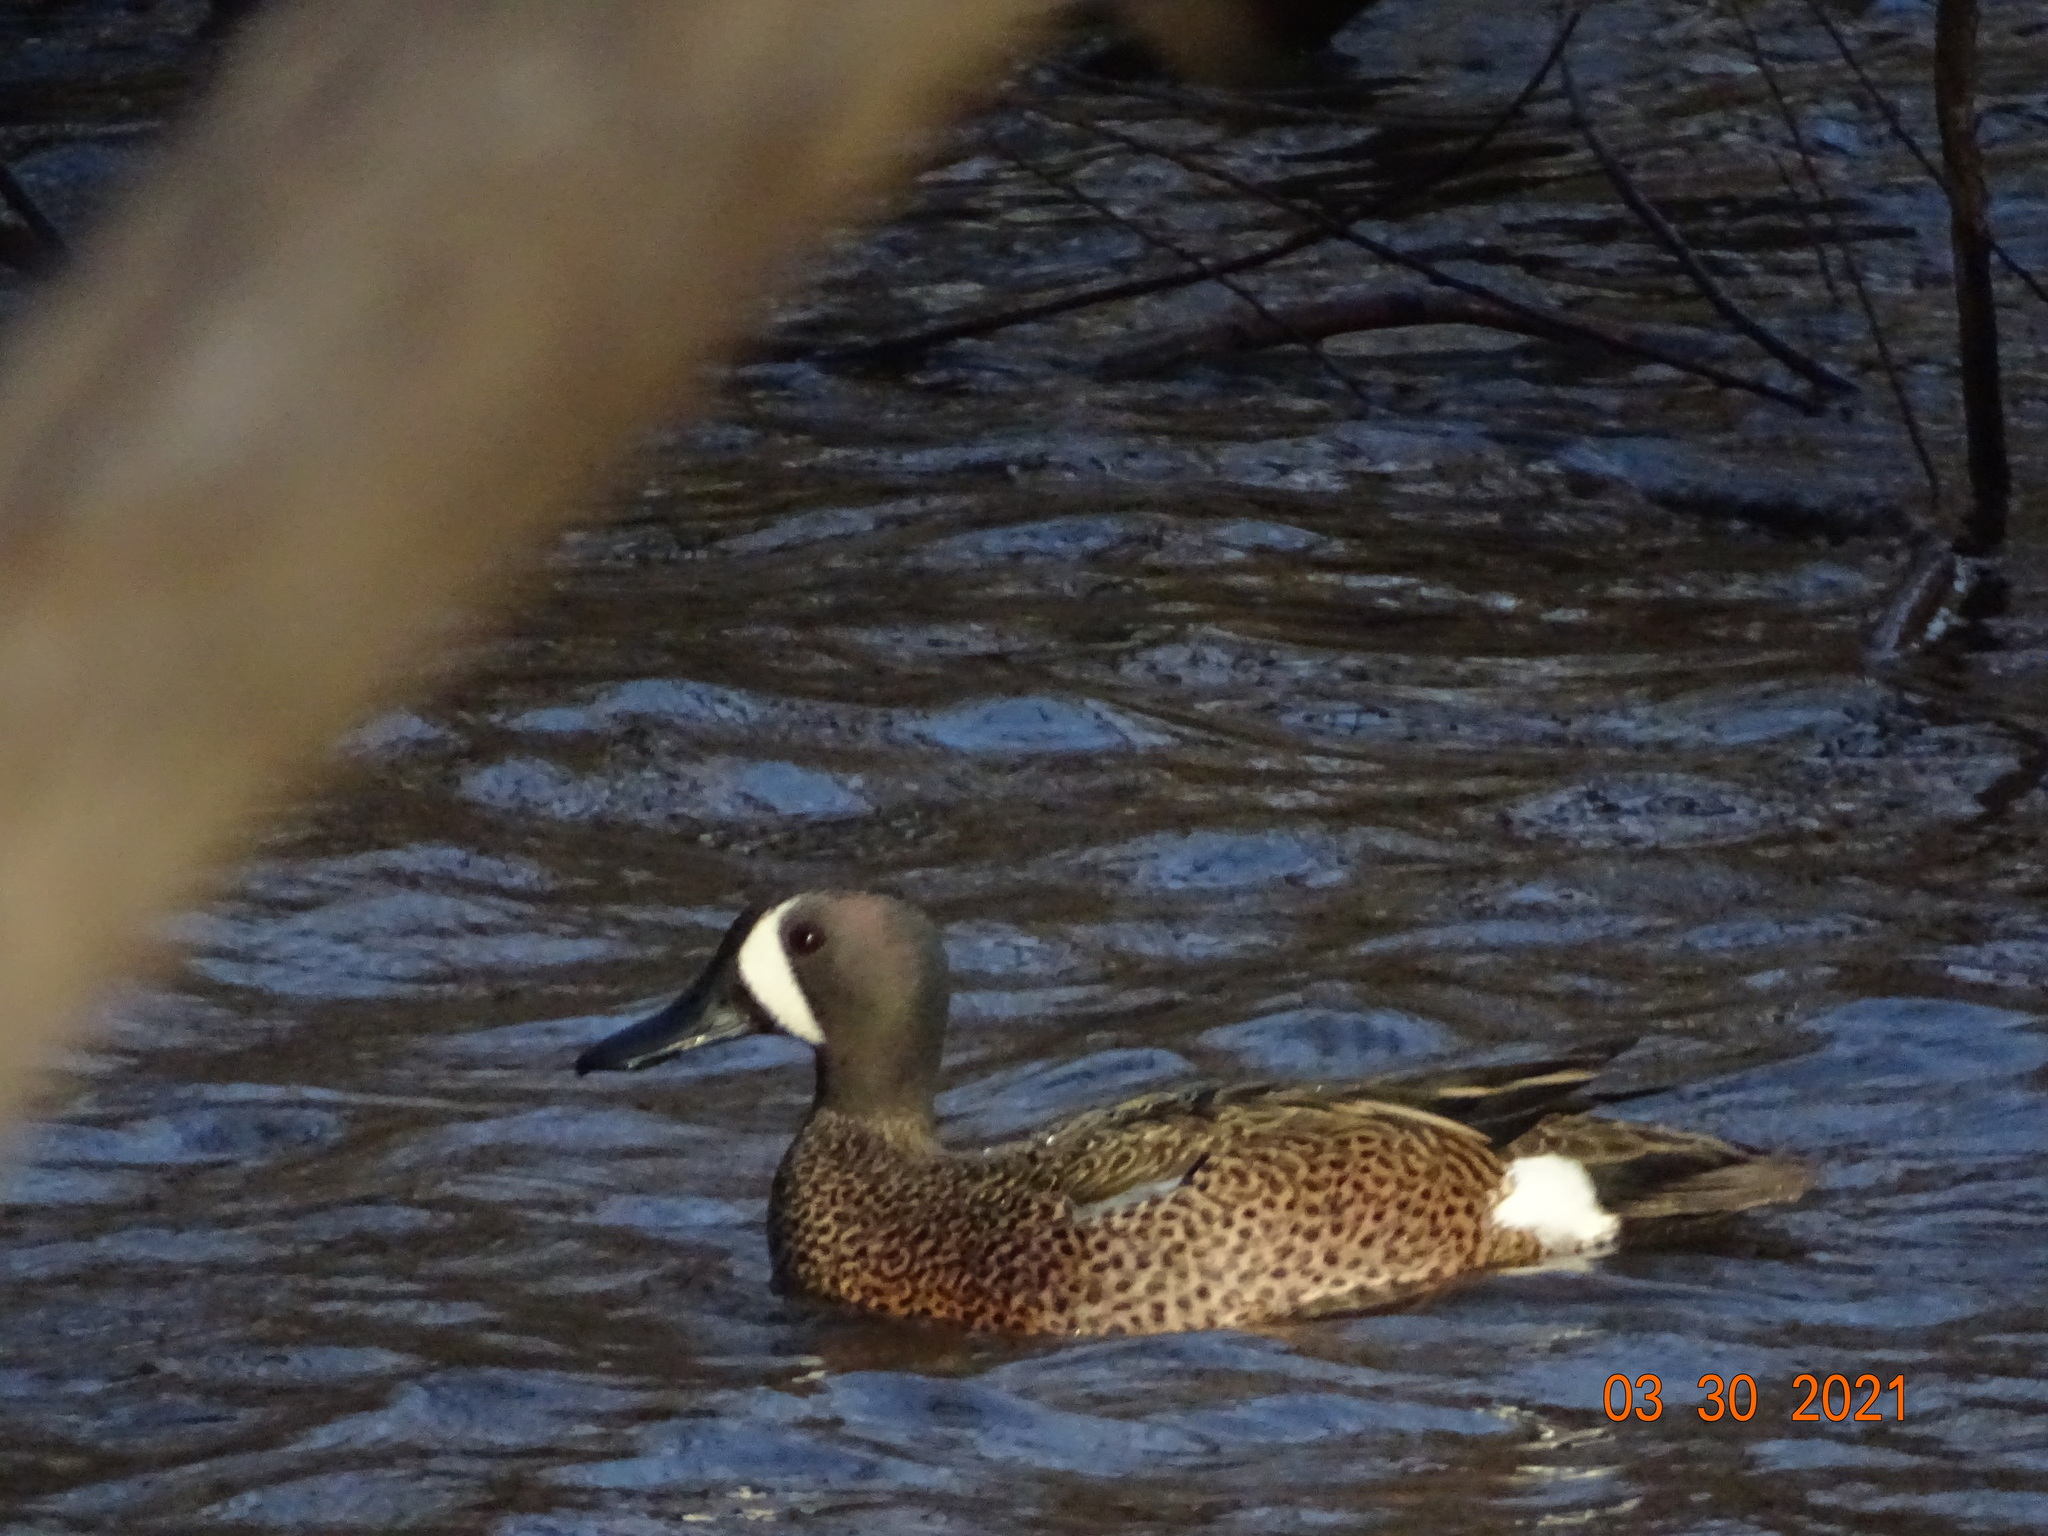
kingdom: Animalia
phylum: Chordata
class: Aves
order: Anseriformes
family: Anatidae
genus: Spatula
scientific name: Spatula discors
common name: Blue-winged teal
